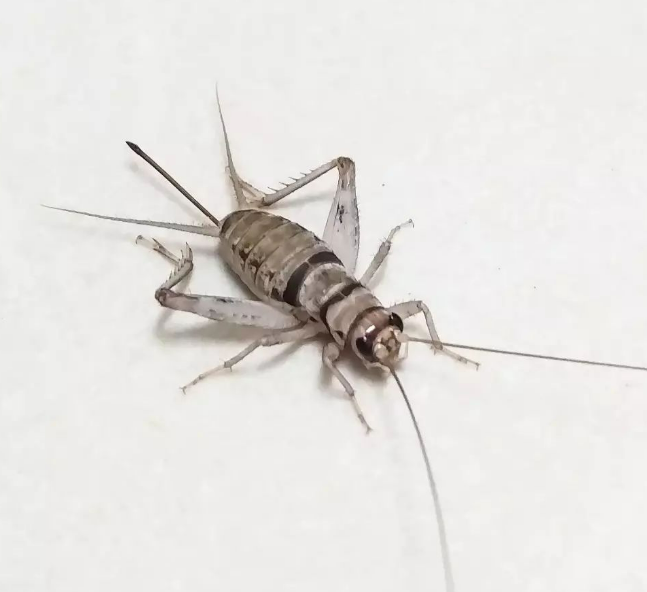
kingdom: Animalia
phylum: Arthropoda
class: Insecta
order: Orthoptera
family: Gryllidae
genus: Gryllodes
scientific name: Gryllodes sigillatus
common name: Tropical house cricket
